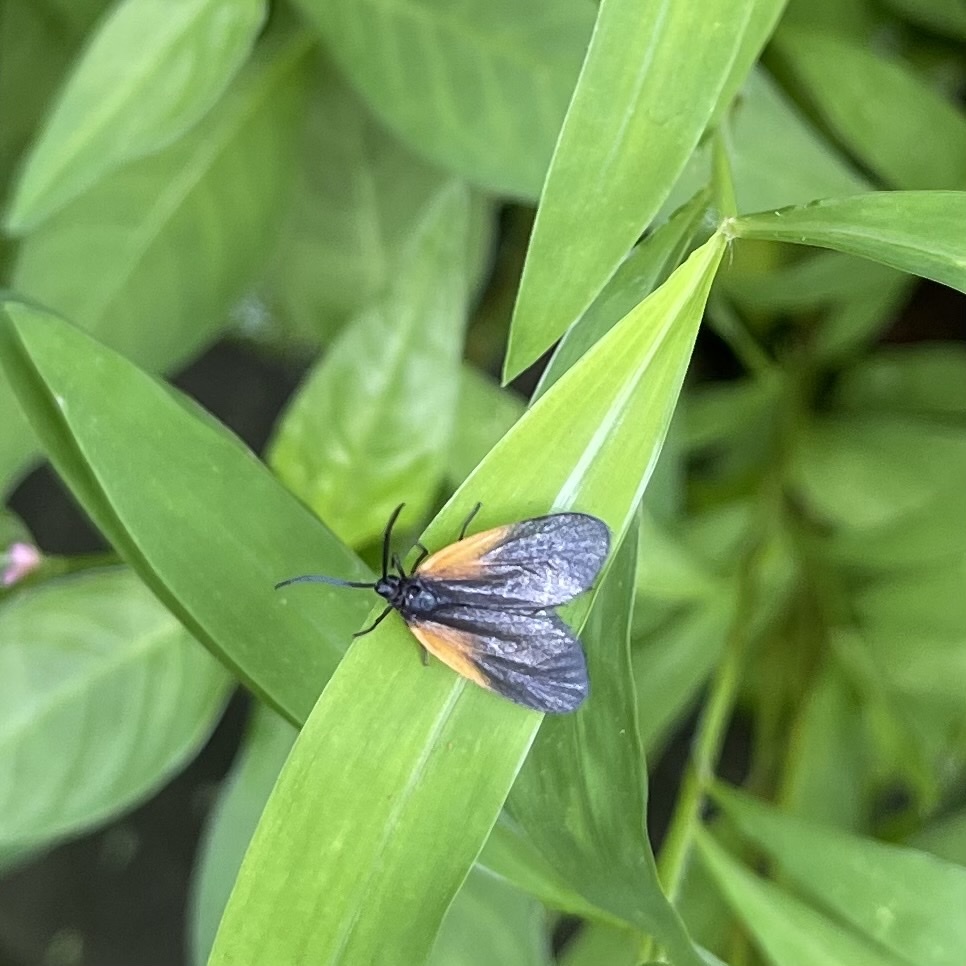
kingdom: Animalia
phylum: Arthropoda
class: Insecta
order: Lepidoptera
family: Zygaenidae
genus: Malthaca
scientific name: Malthaca dimidiata
